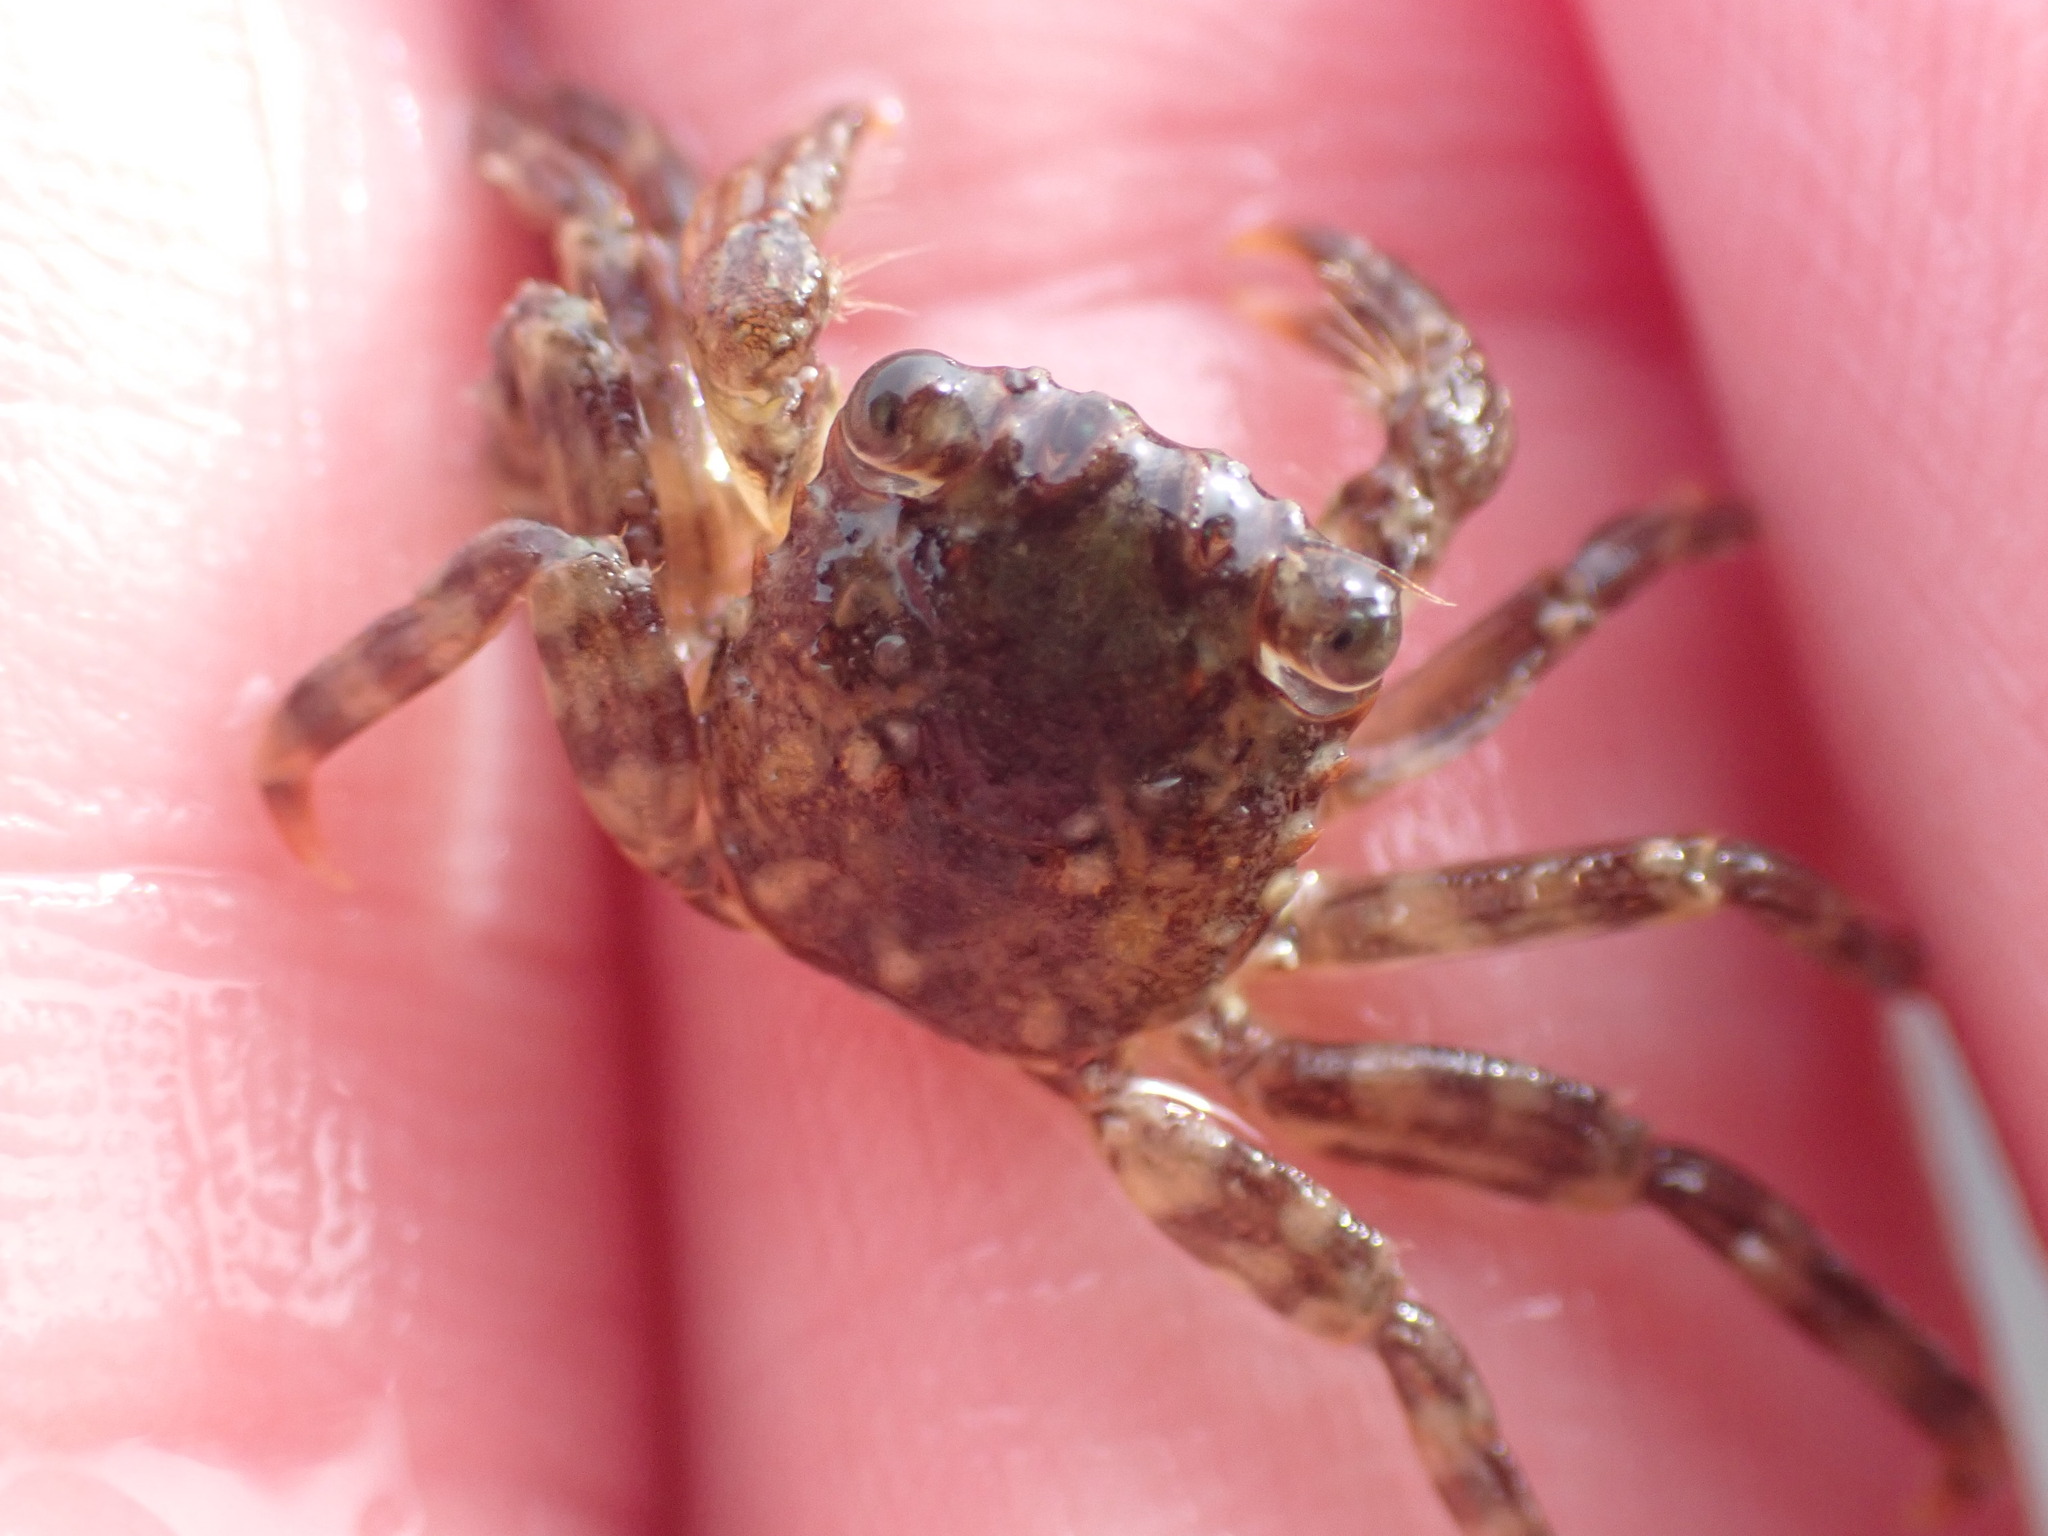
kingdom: Animalia
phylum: Arthropoda
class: Malacostraca
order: Decapoda
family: Plagusiidae
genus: Guinusia
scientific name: Guinusia chabrus
